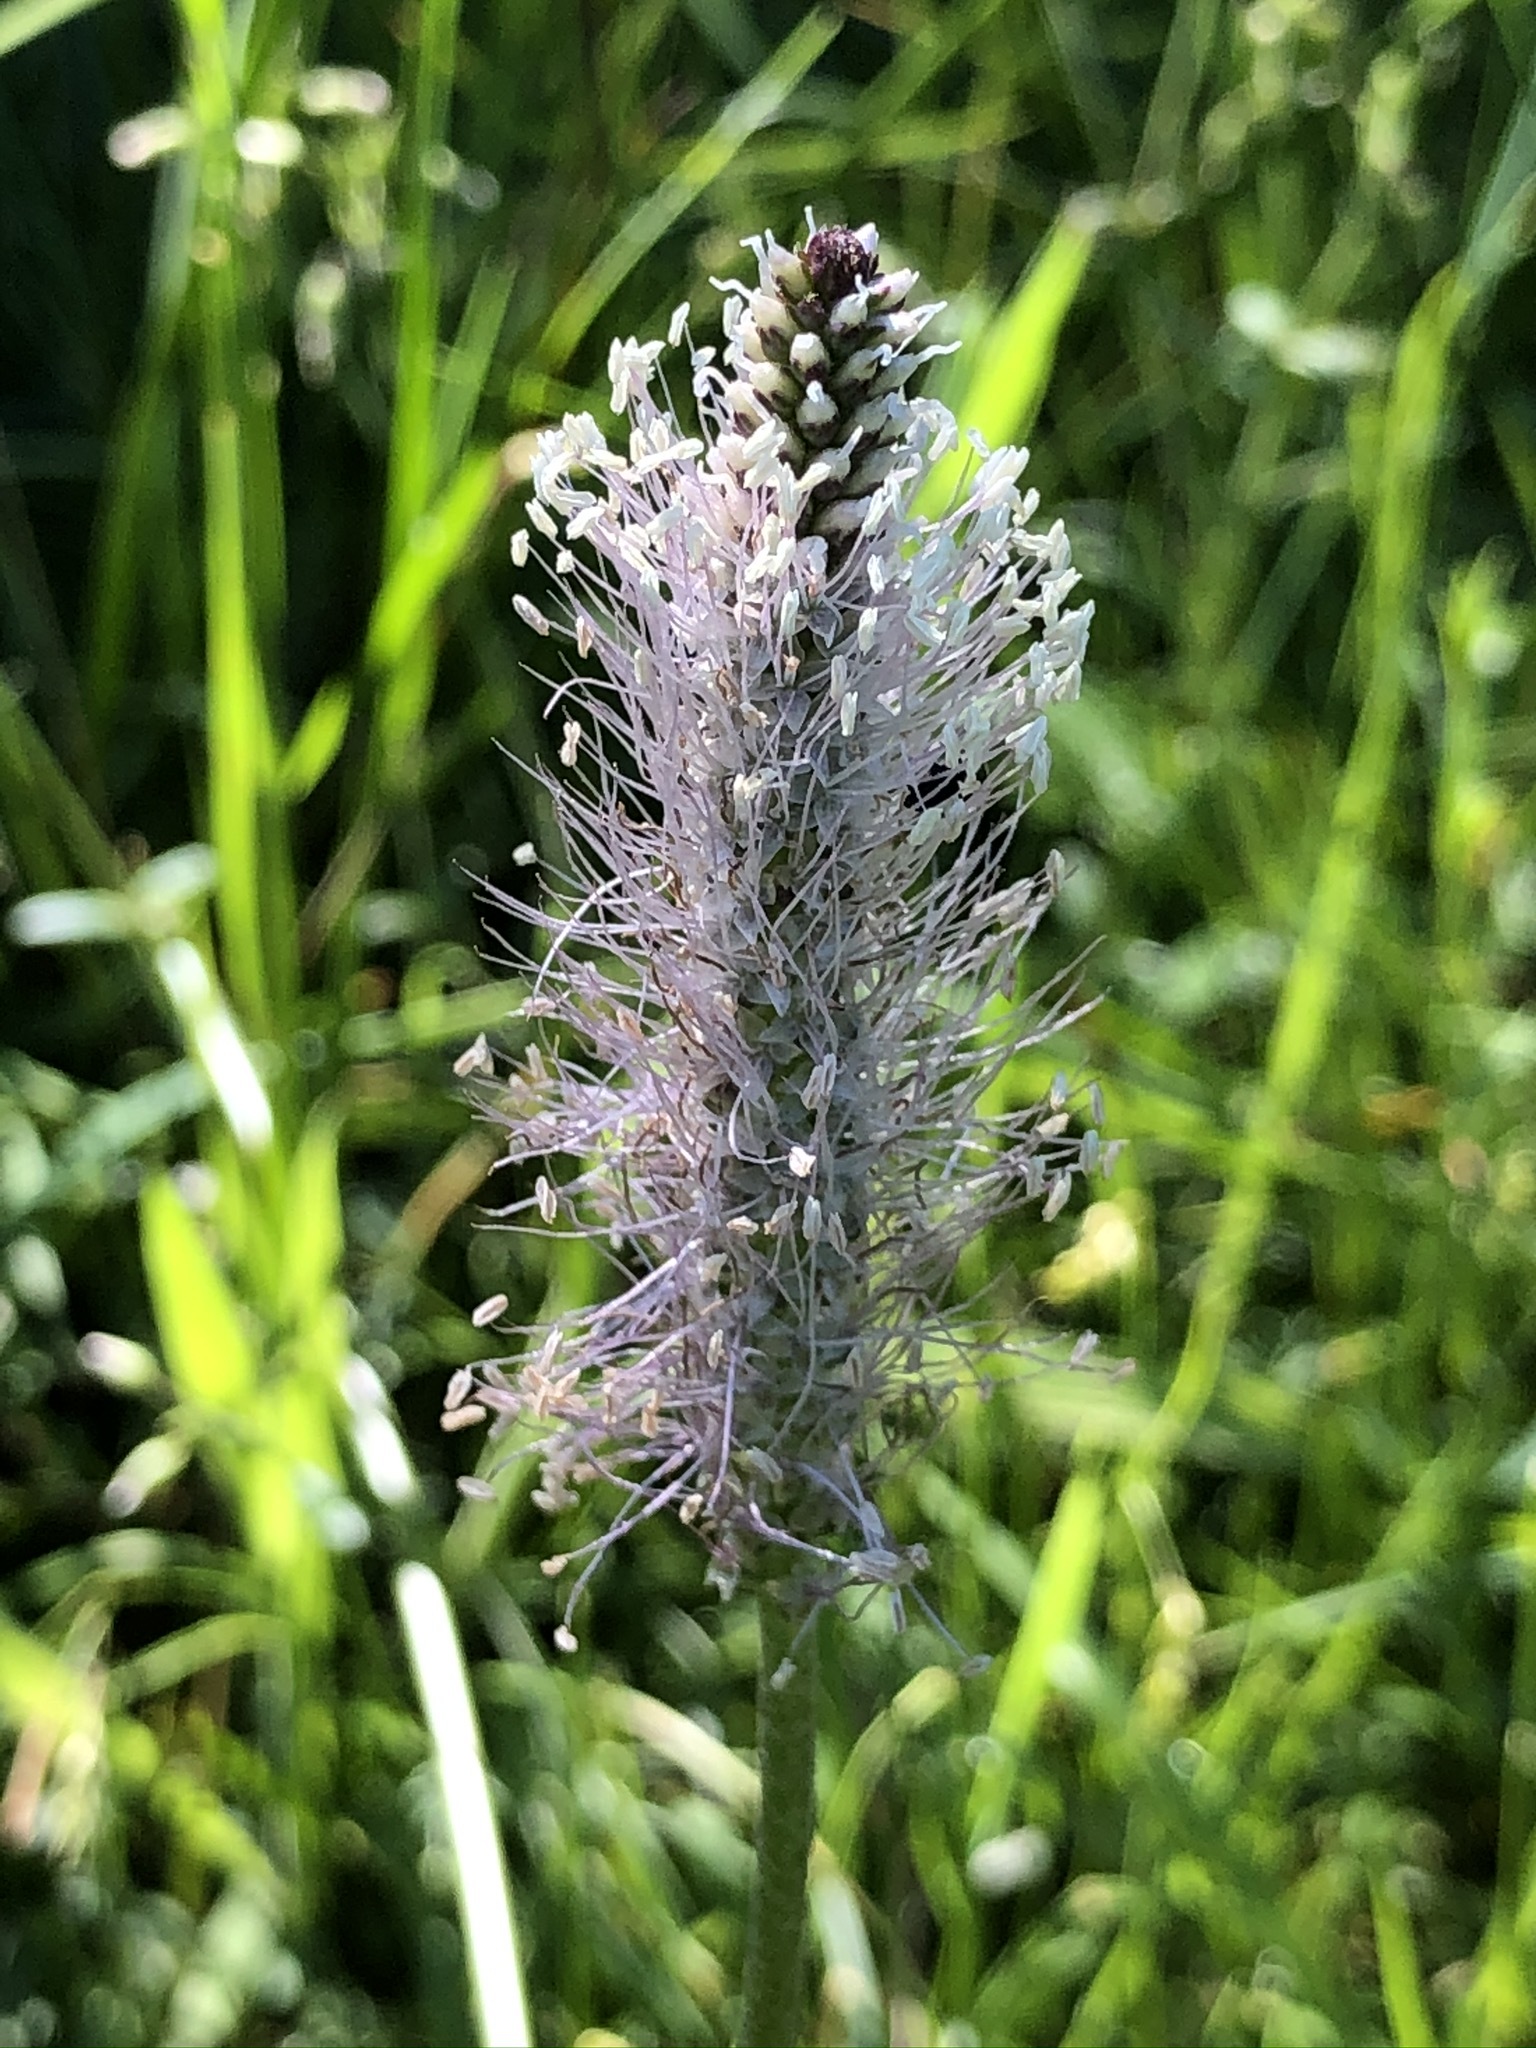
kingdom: Plantae
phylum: Tracheophyta
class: Magnoliopsida
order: Lamiales
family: Plantaginaceae
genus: Plantago
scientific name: Plantago media
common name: Hoary plantain
